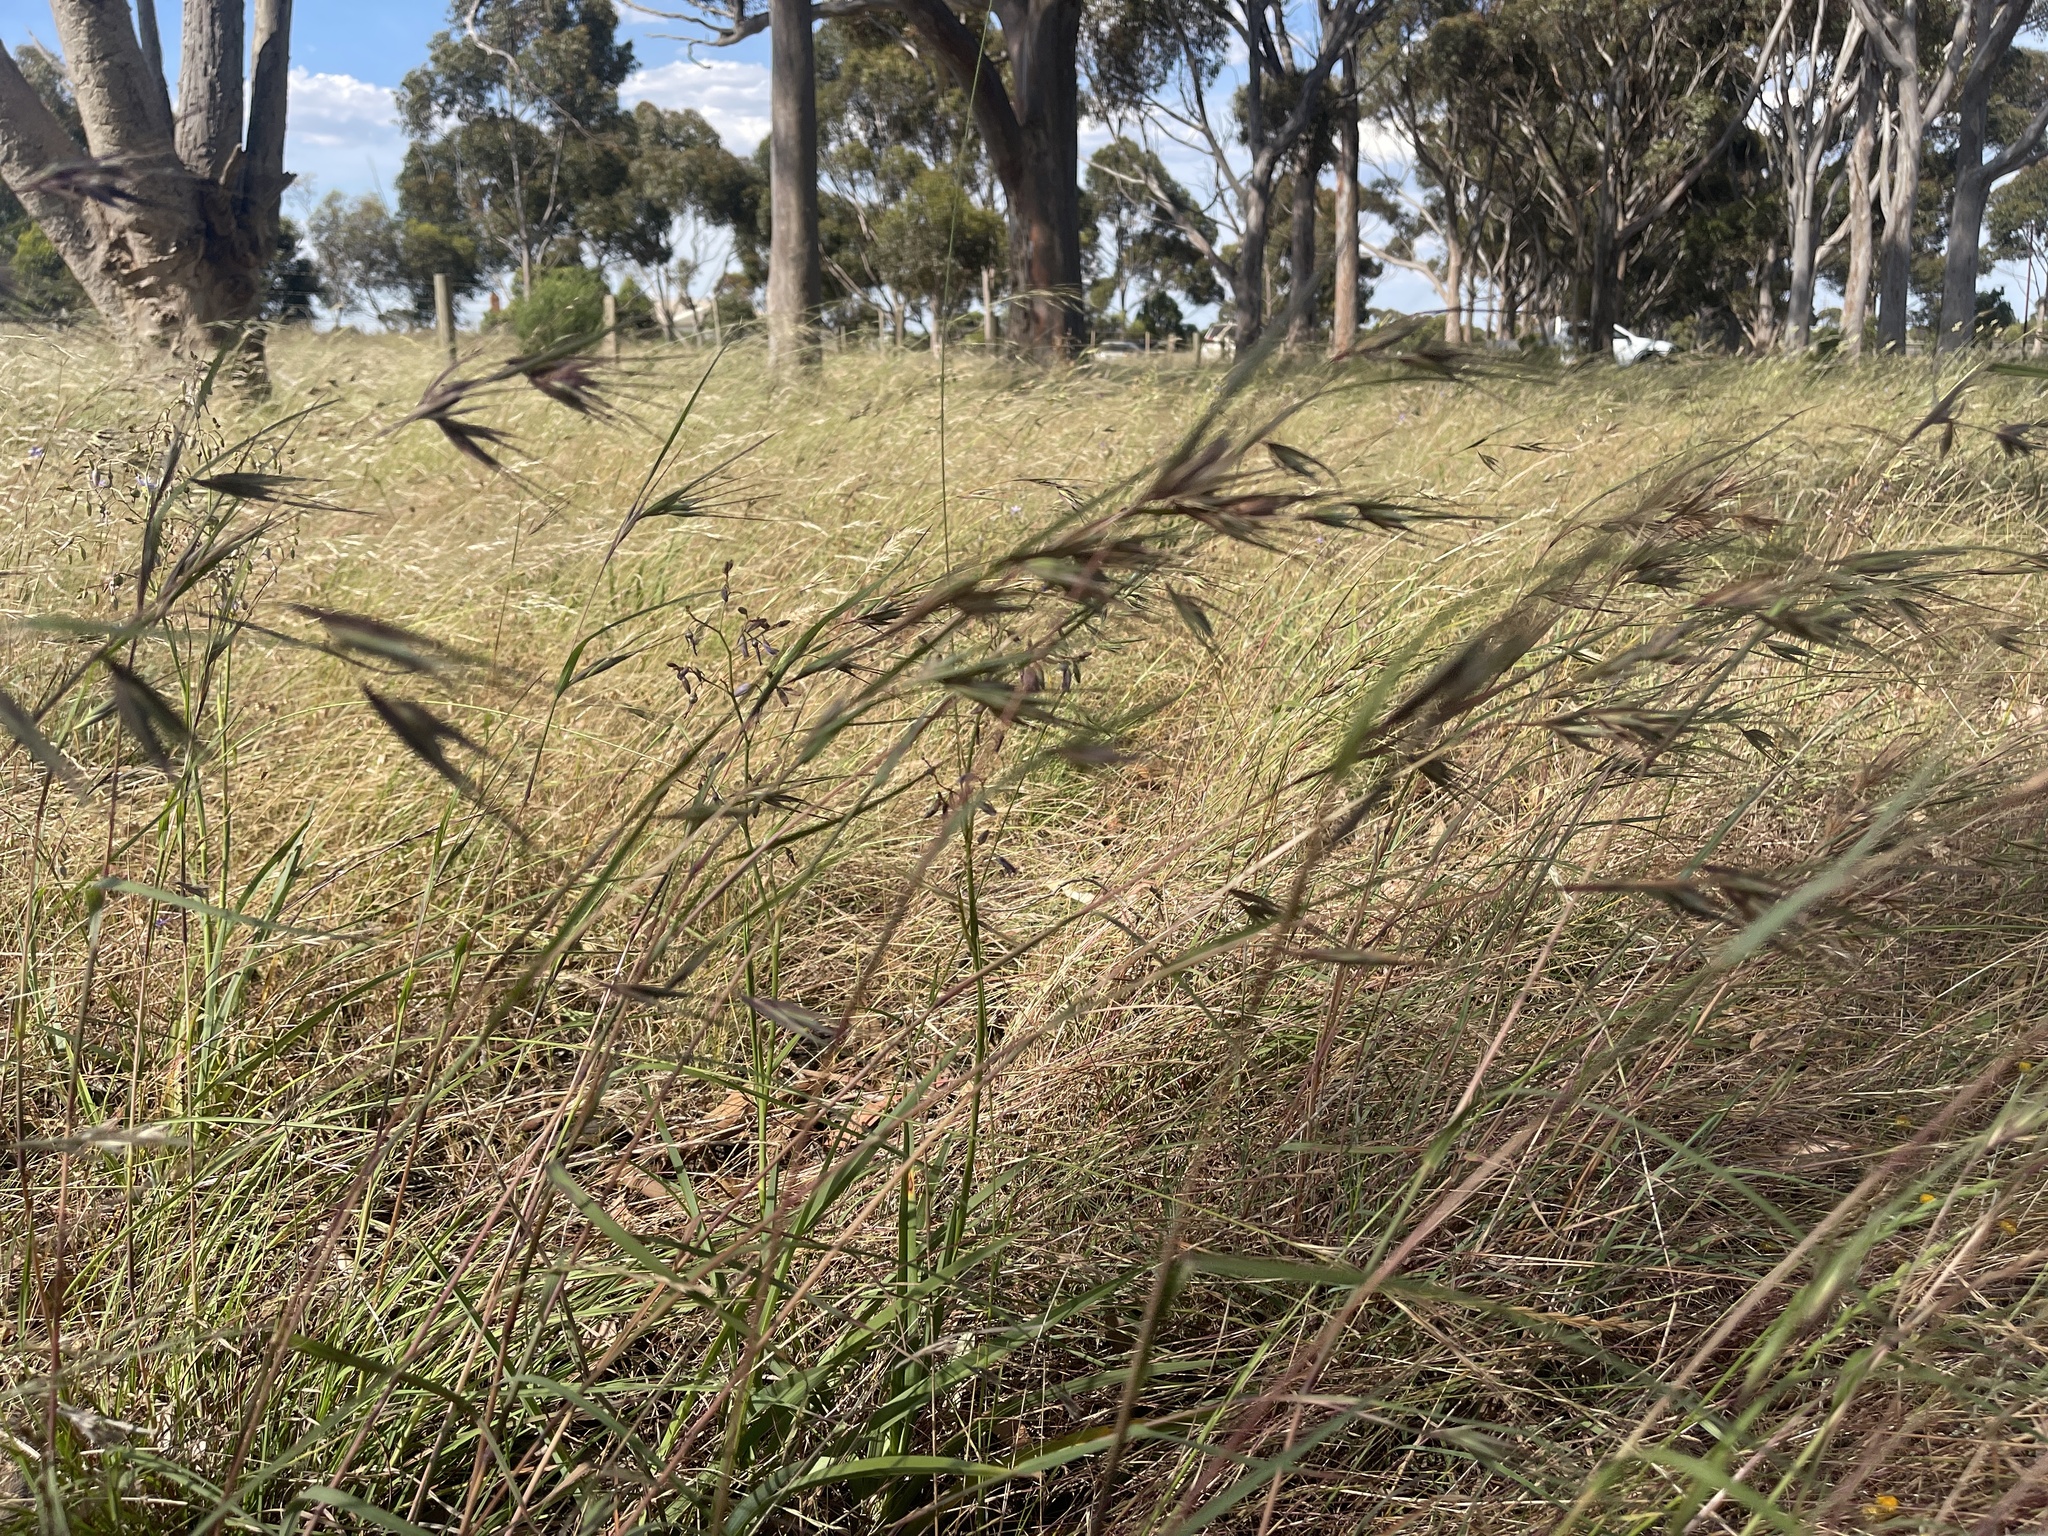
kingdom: Plantae
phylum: Tracheophyta
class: Liliopsida
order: Poales
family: Poaceae
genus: Themeda
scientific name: Themeda triandra
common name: Kangaroo grass
